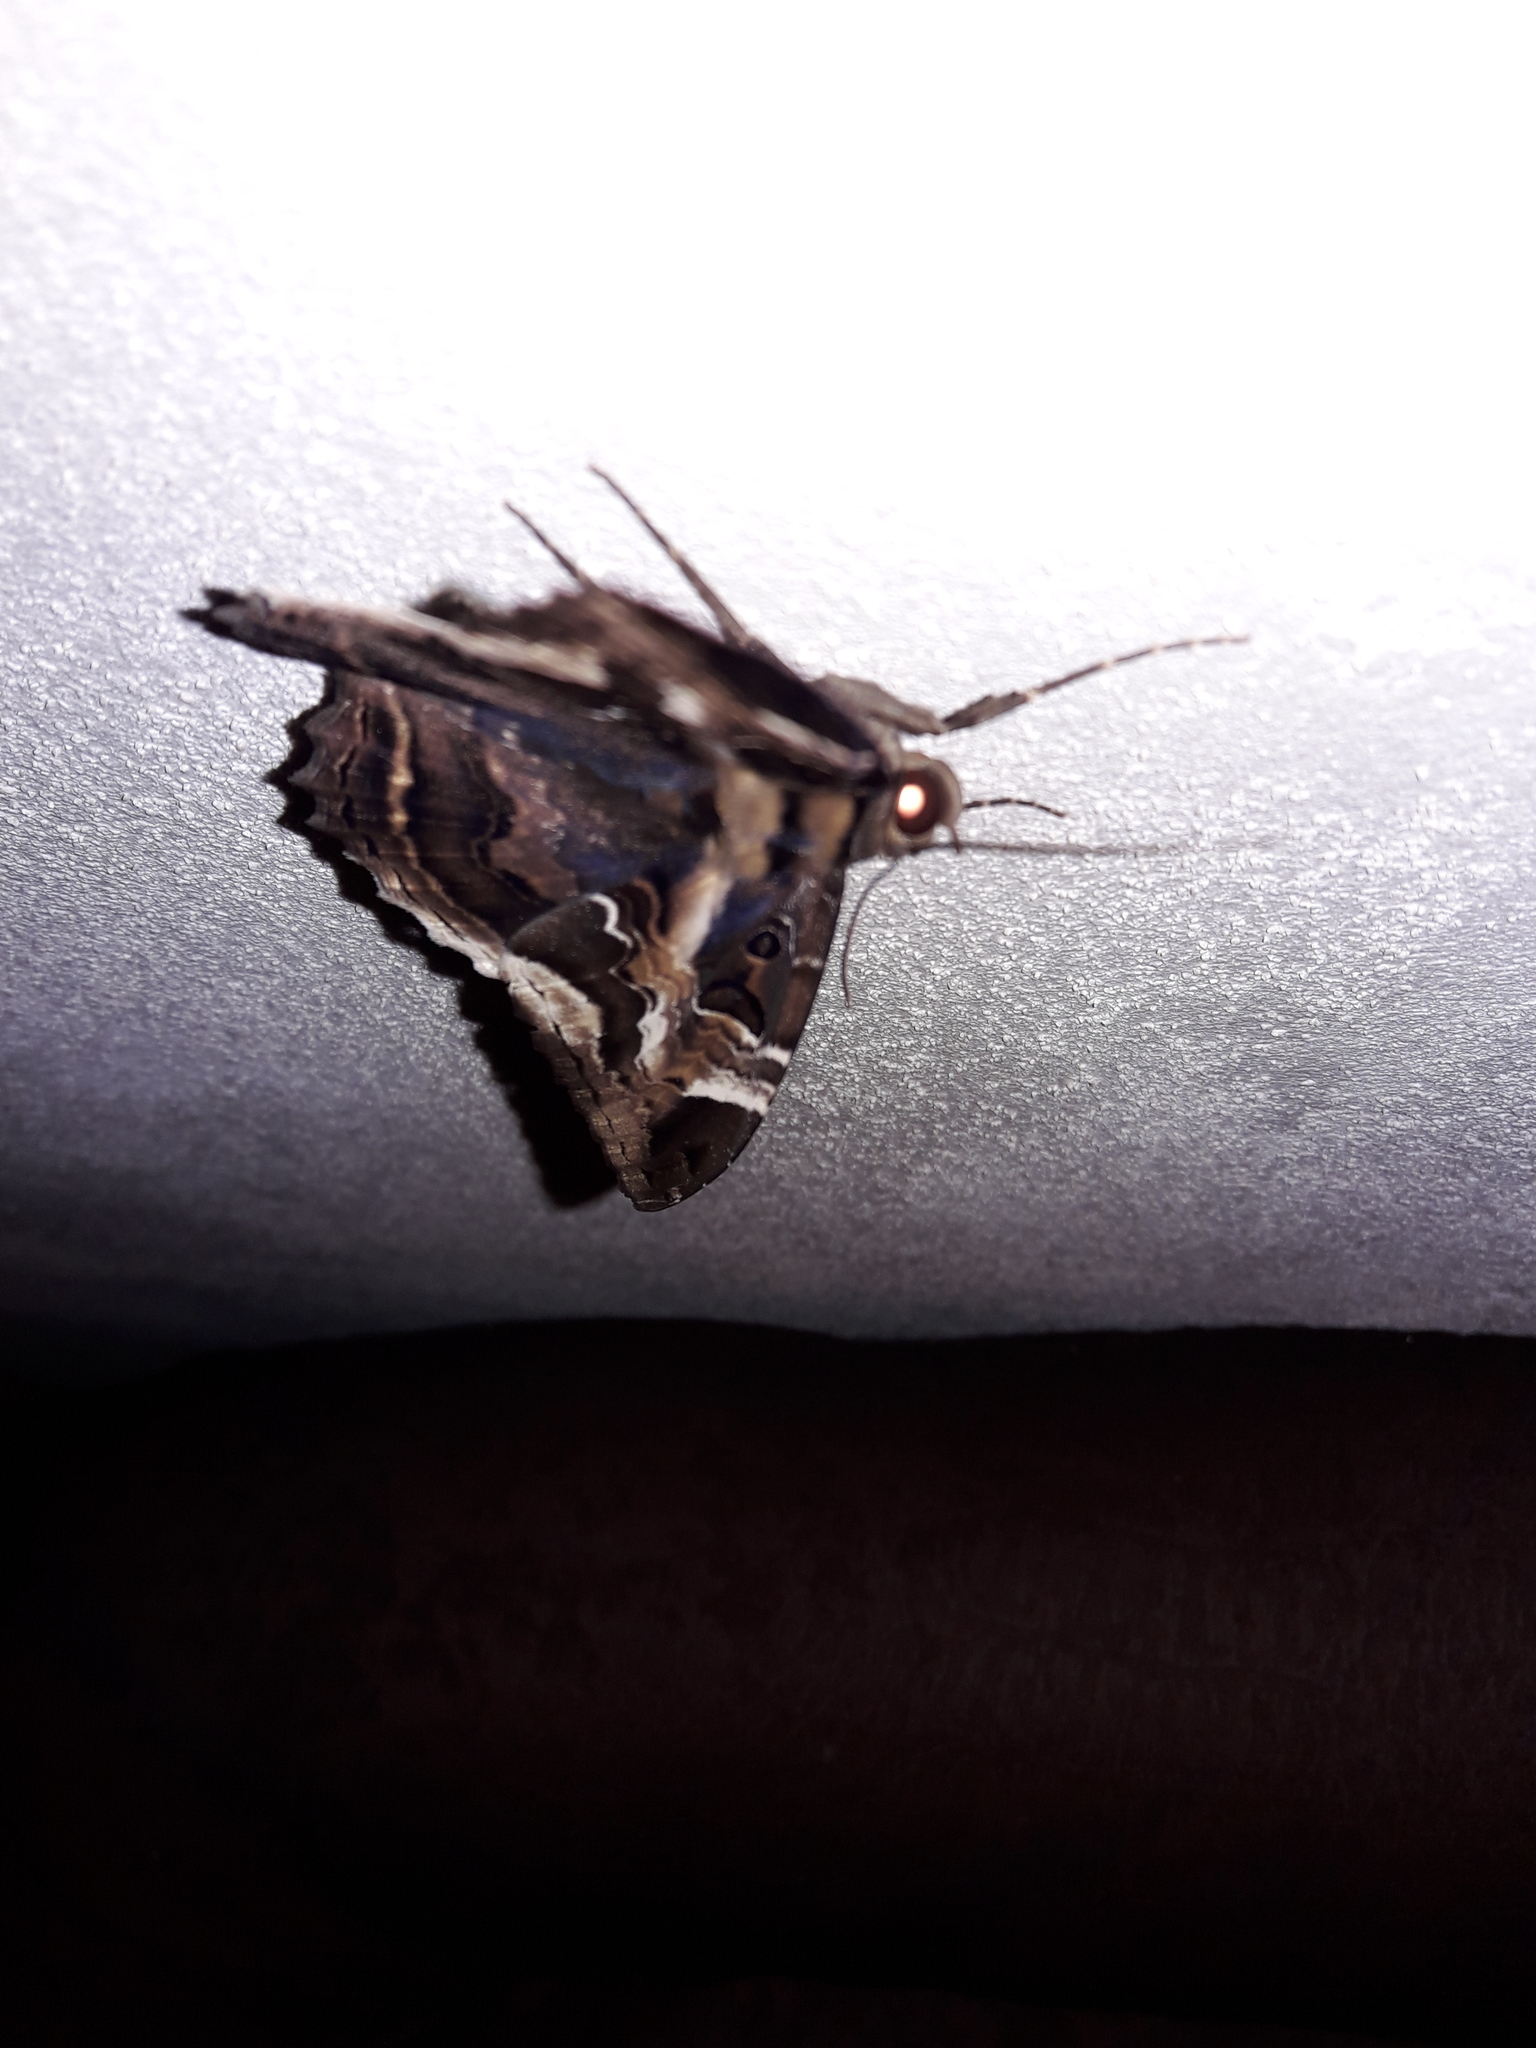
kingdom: Animalia
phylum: Arthropoda
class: Insecta
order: Lepidoptera
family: Erebidae
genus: Feigeria
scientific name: Feigeria herilia
